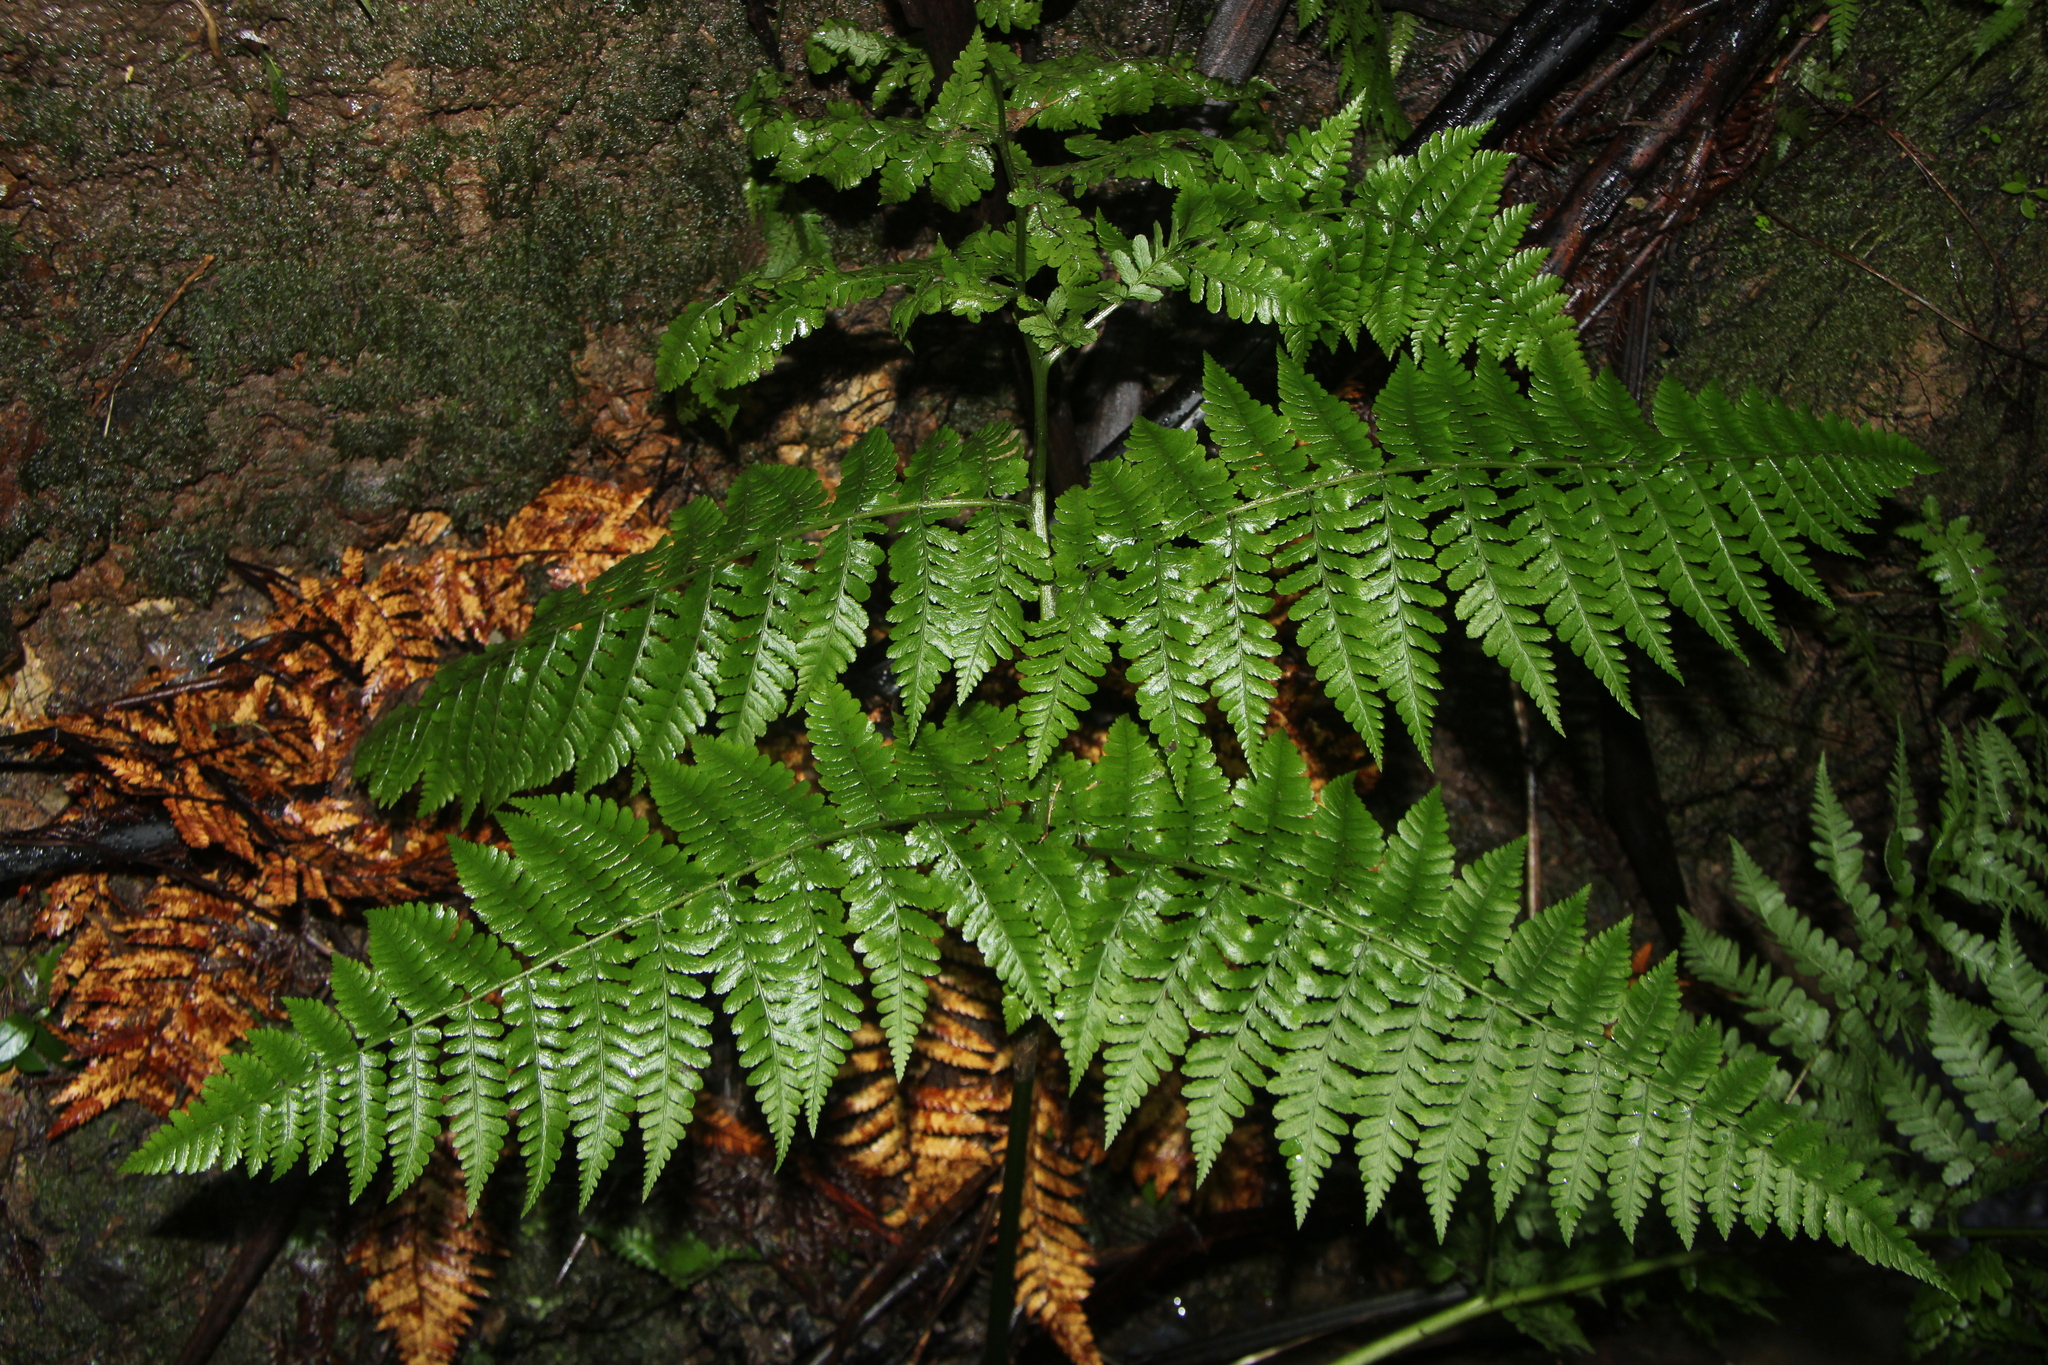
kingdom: Plantae
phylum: Tracheophyta
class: Polypodiopsida
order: Polypodiales
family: Athyriaceae
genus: Diplazium
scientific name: Diplazium australe
